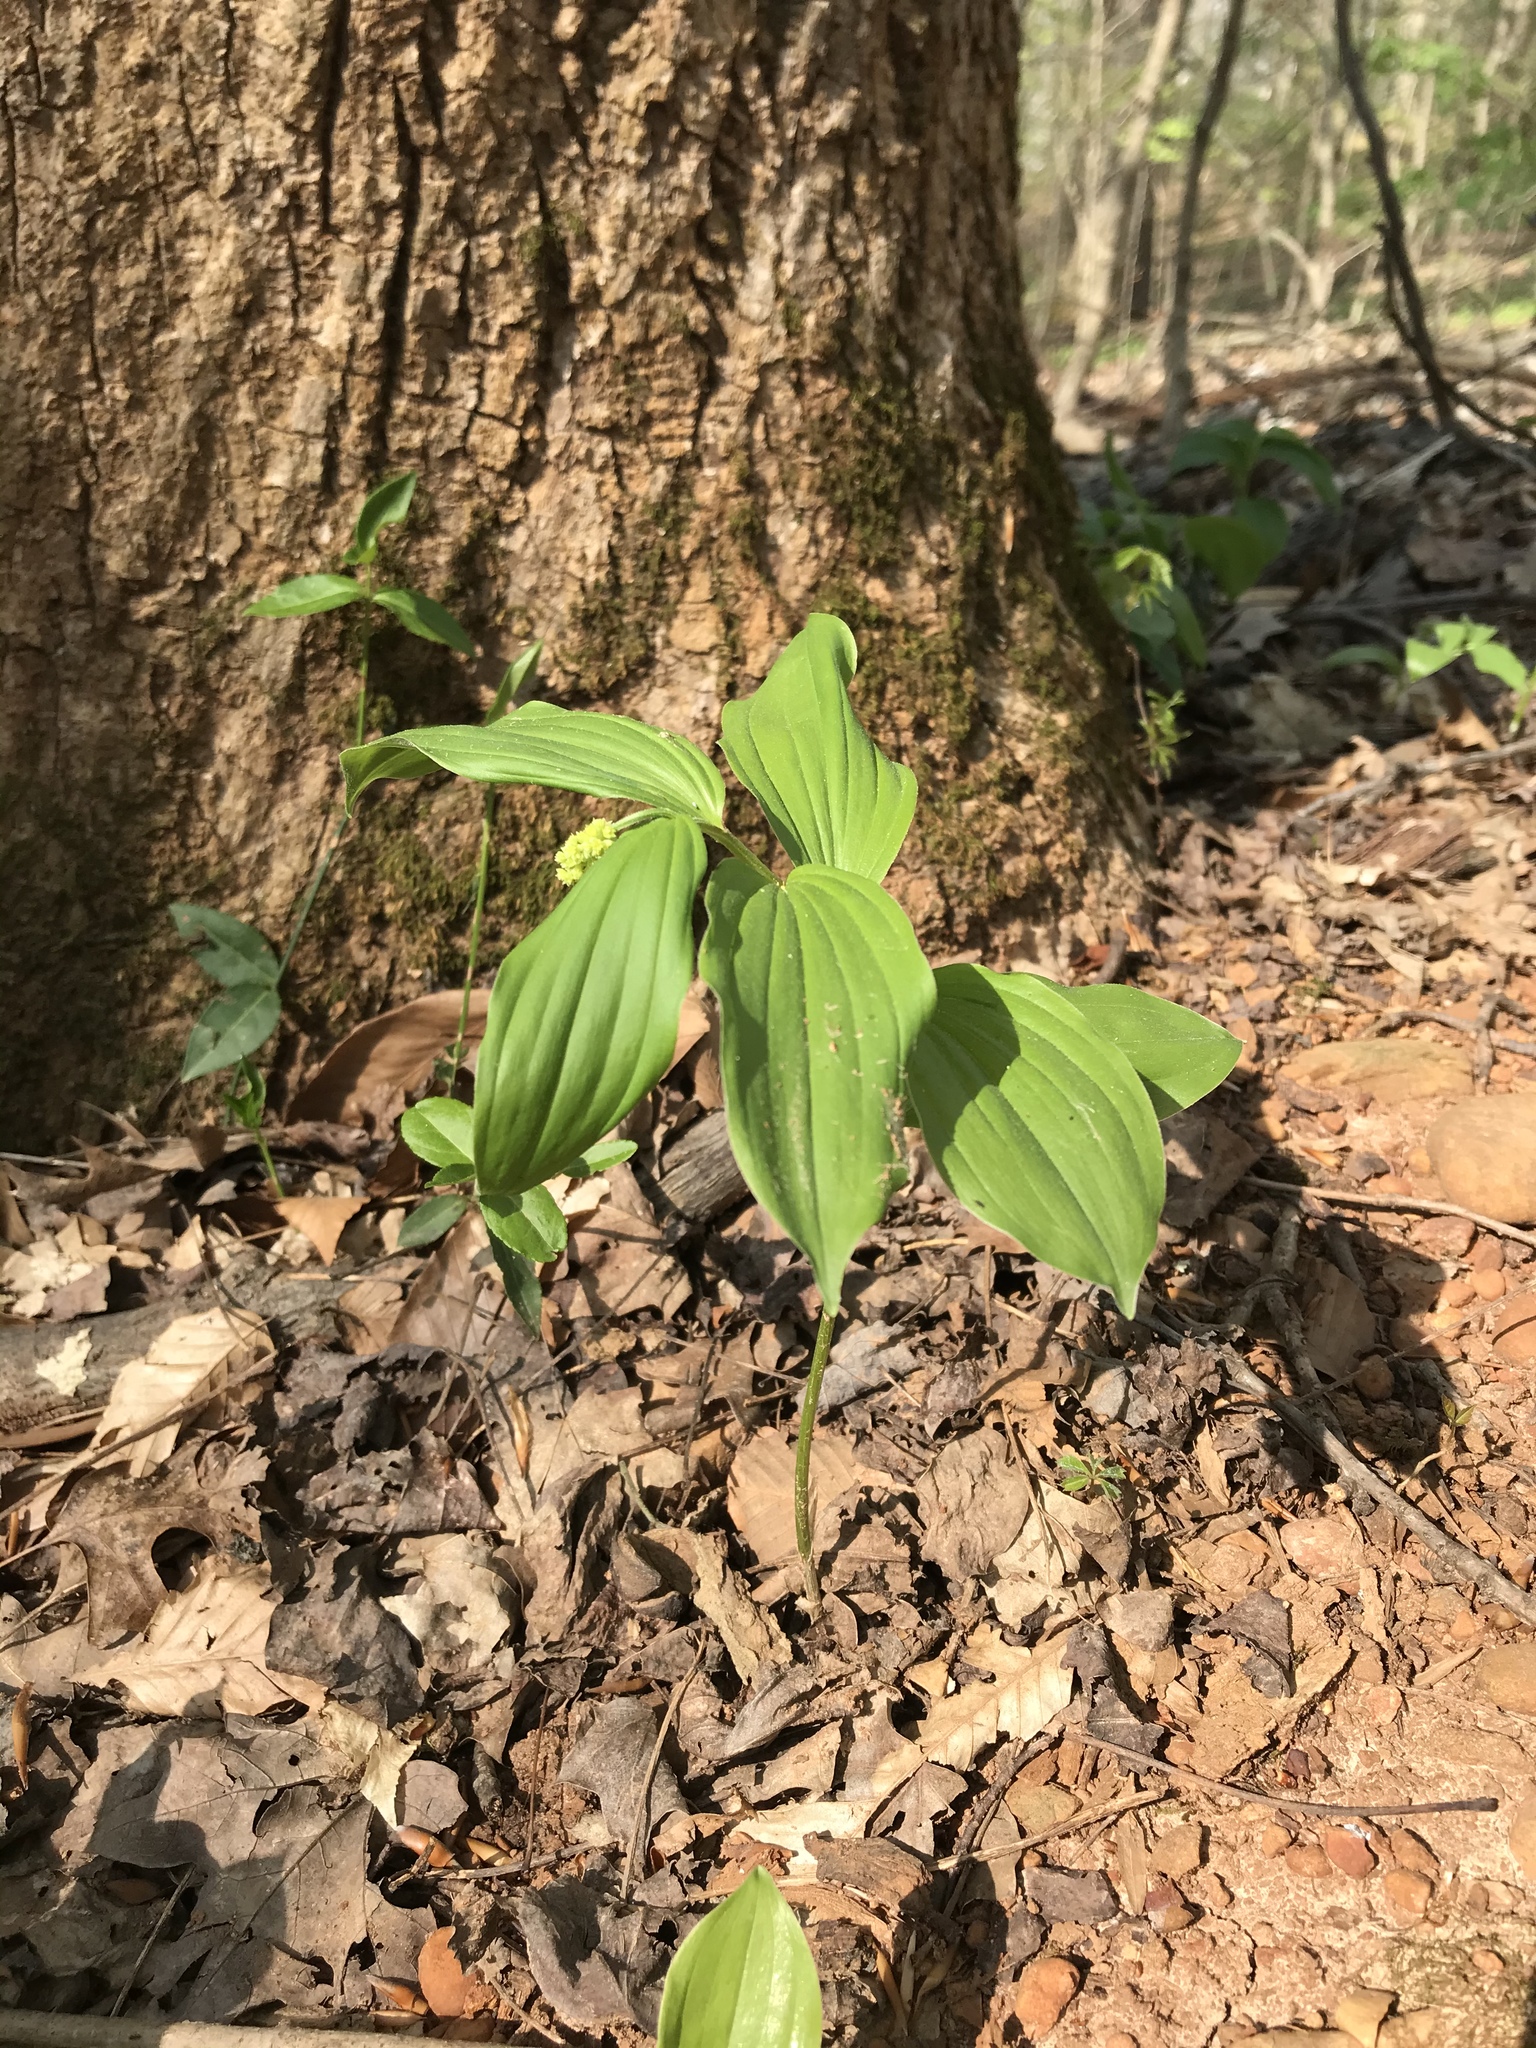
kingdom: Plantae
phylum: Tracheophyta
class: Liliopsida
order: Asparagales
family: Asparagaceae
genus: Maianthemum
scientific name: Maianthemum racemosum
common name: False spikenard
